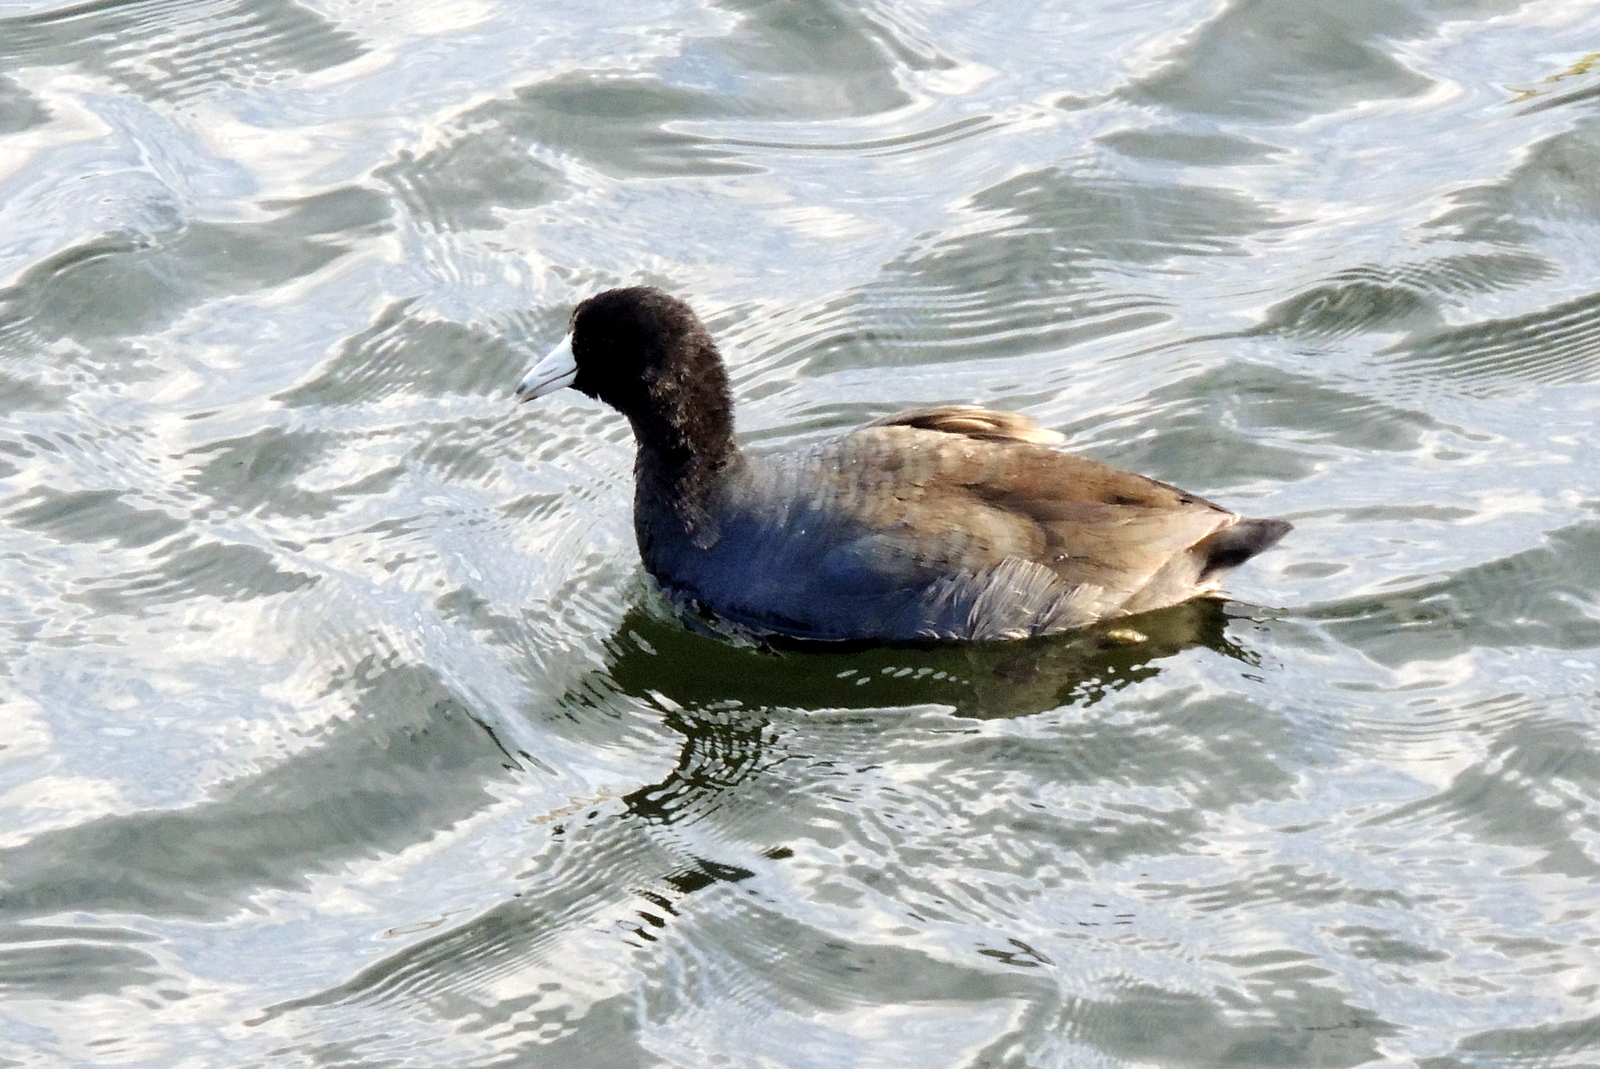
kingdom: Animalia
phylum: Chordata
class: Aves
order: Gruiformes
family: Rallidae
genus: Fulica
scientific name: Fulica americana
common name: American coot
